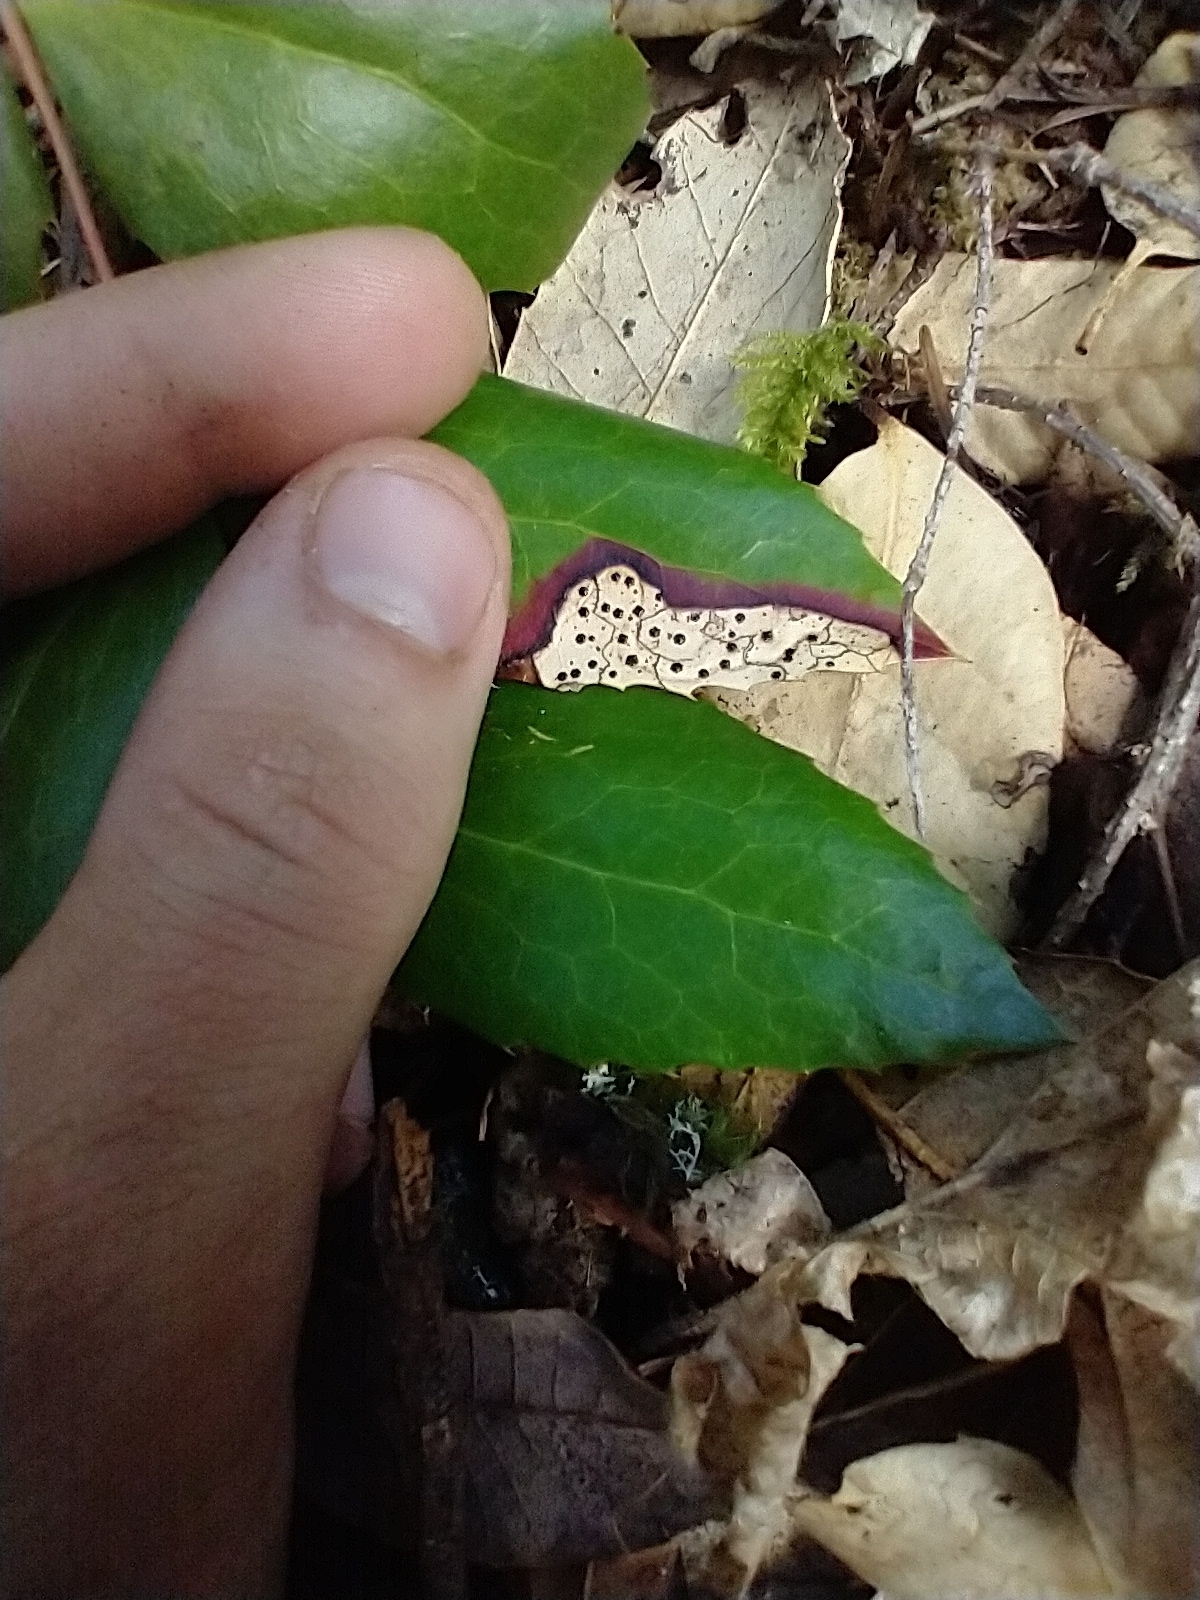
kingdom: Fungi
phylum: Ascomycota
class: Leotiomycetes
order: Rhytismatales
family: Rhytismataceae
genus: Coccomyces
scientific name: Coccomyces dentatus
